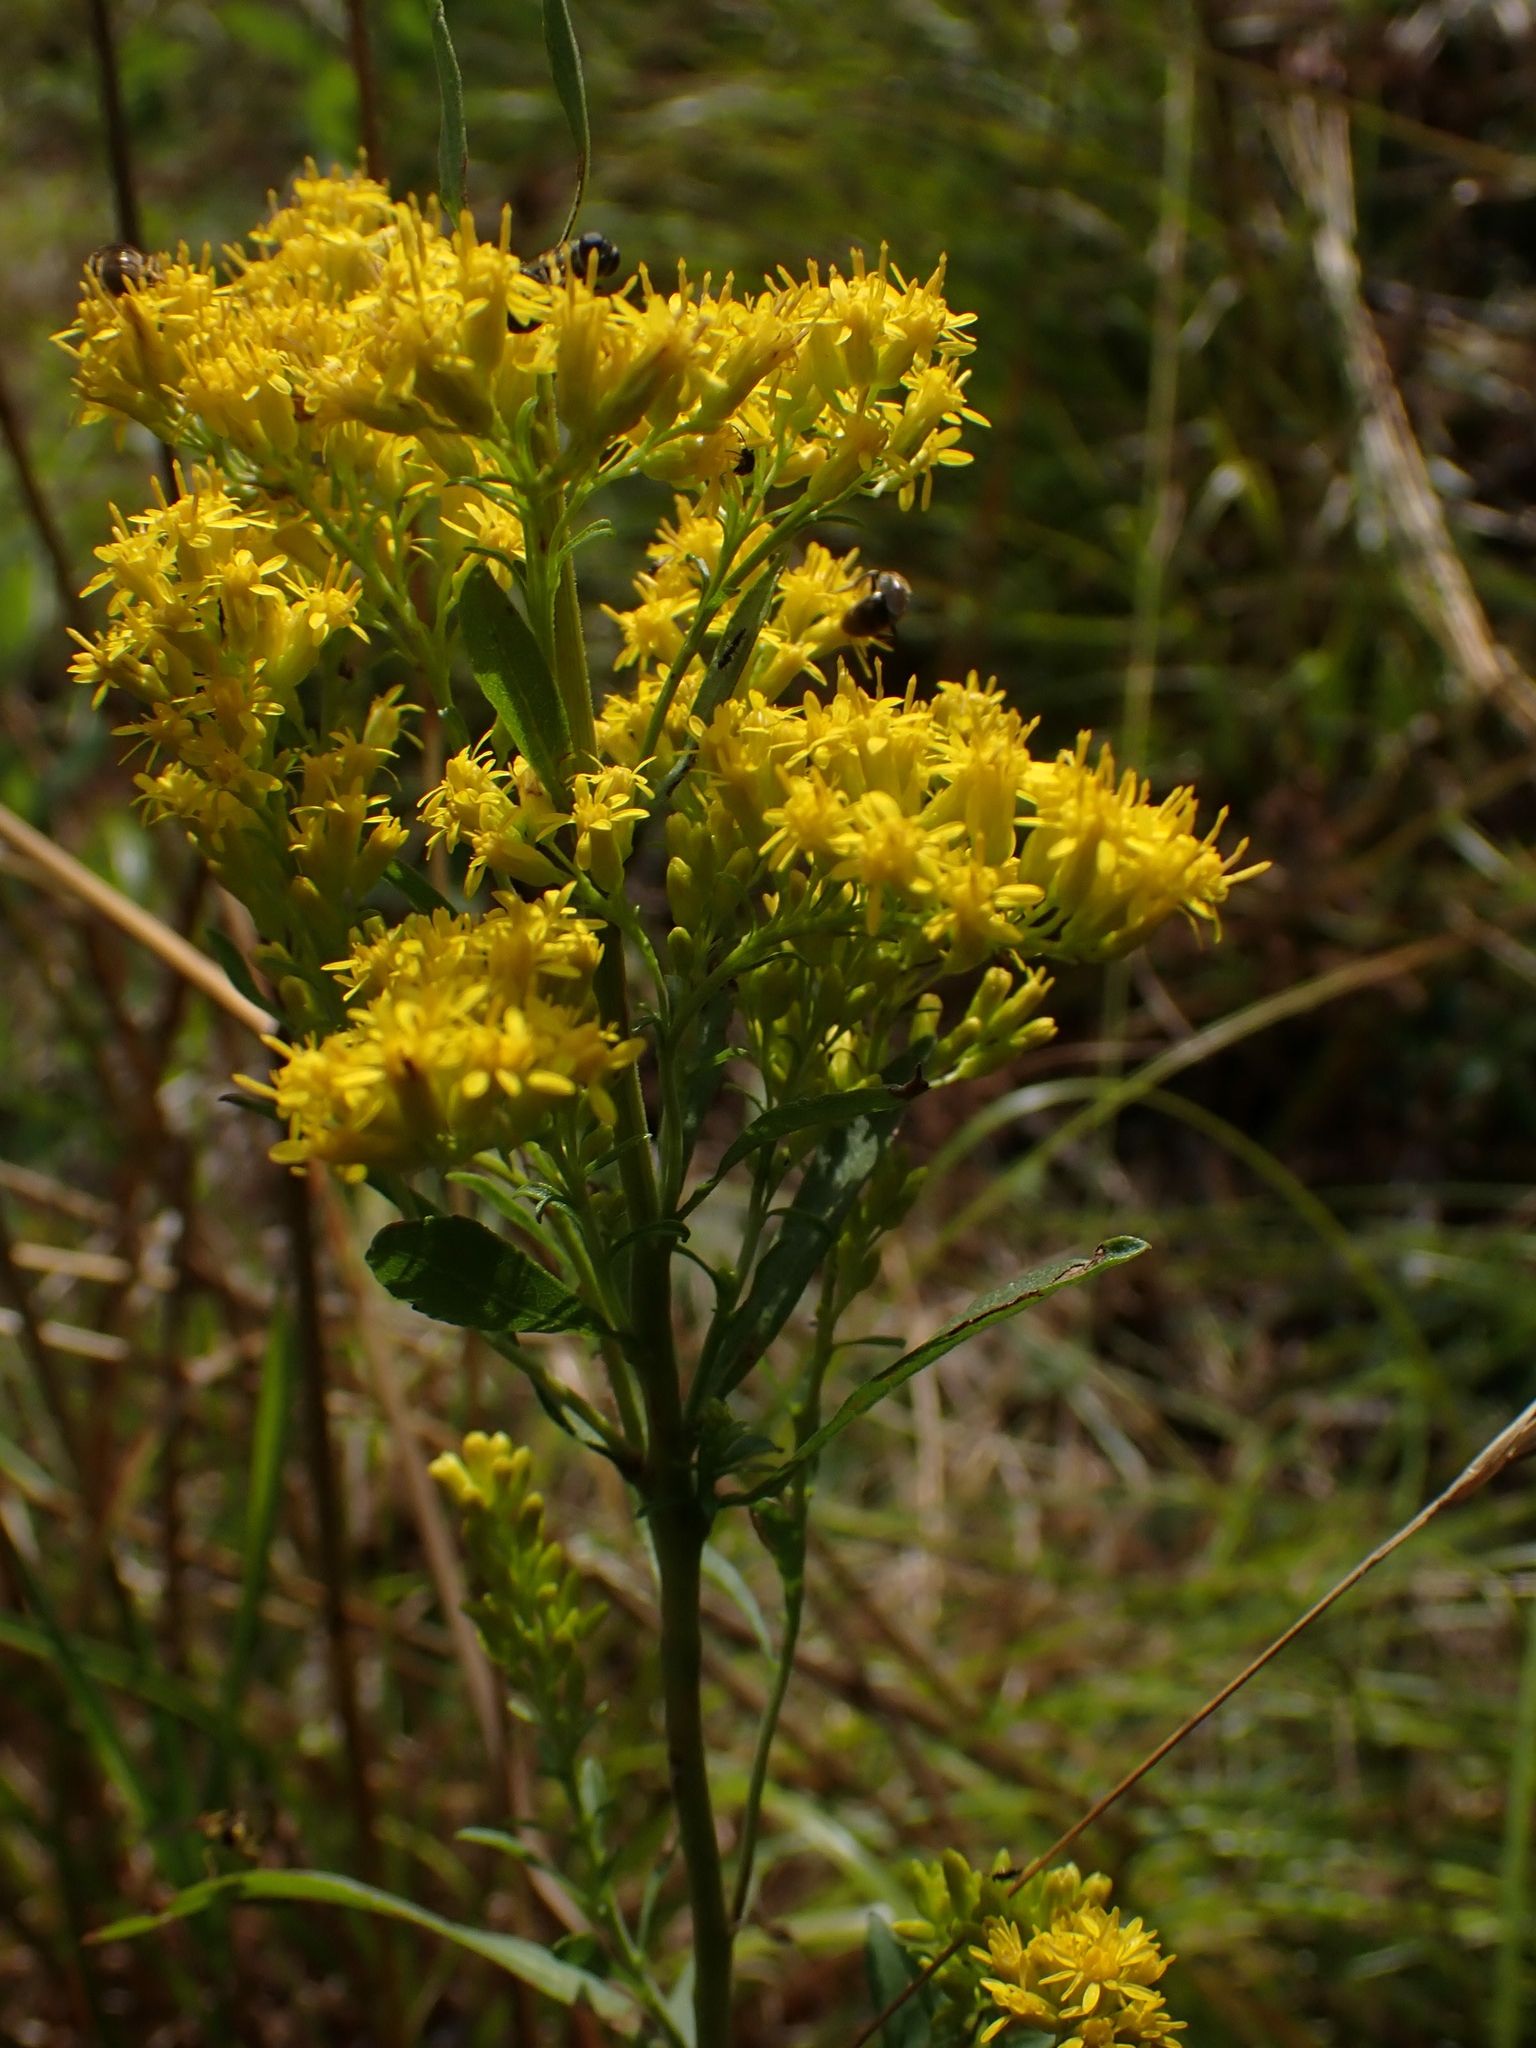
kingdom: Plantae
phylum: Tracheophyta
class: Magnoliopsida
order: Asterales
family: Asteraceae
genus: Solidago
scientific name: Solidago uliginosa
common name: Bog goldenrod
